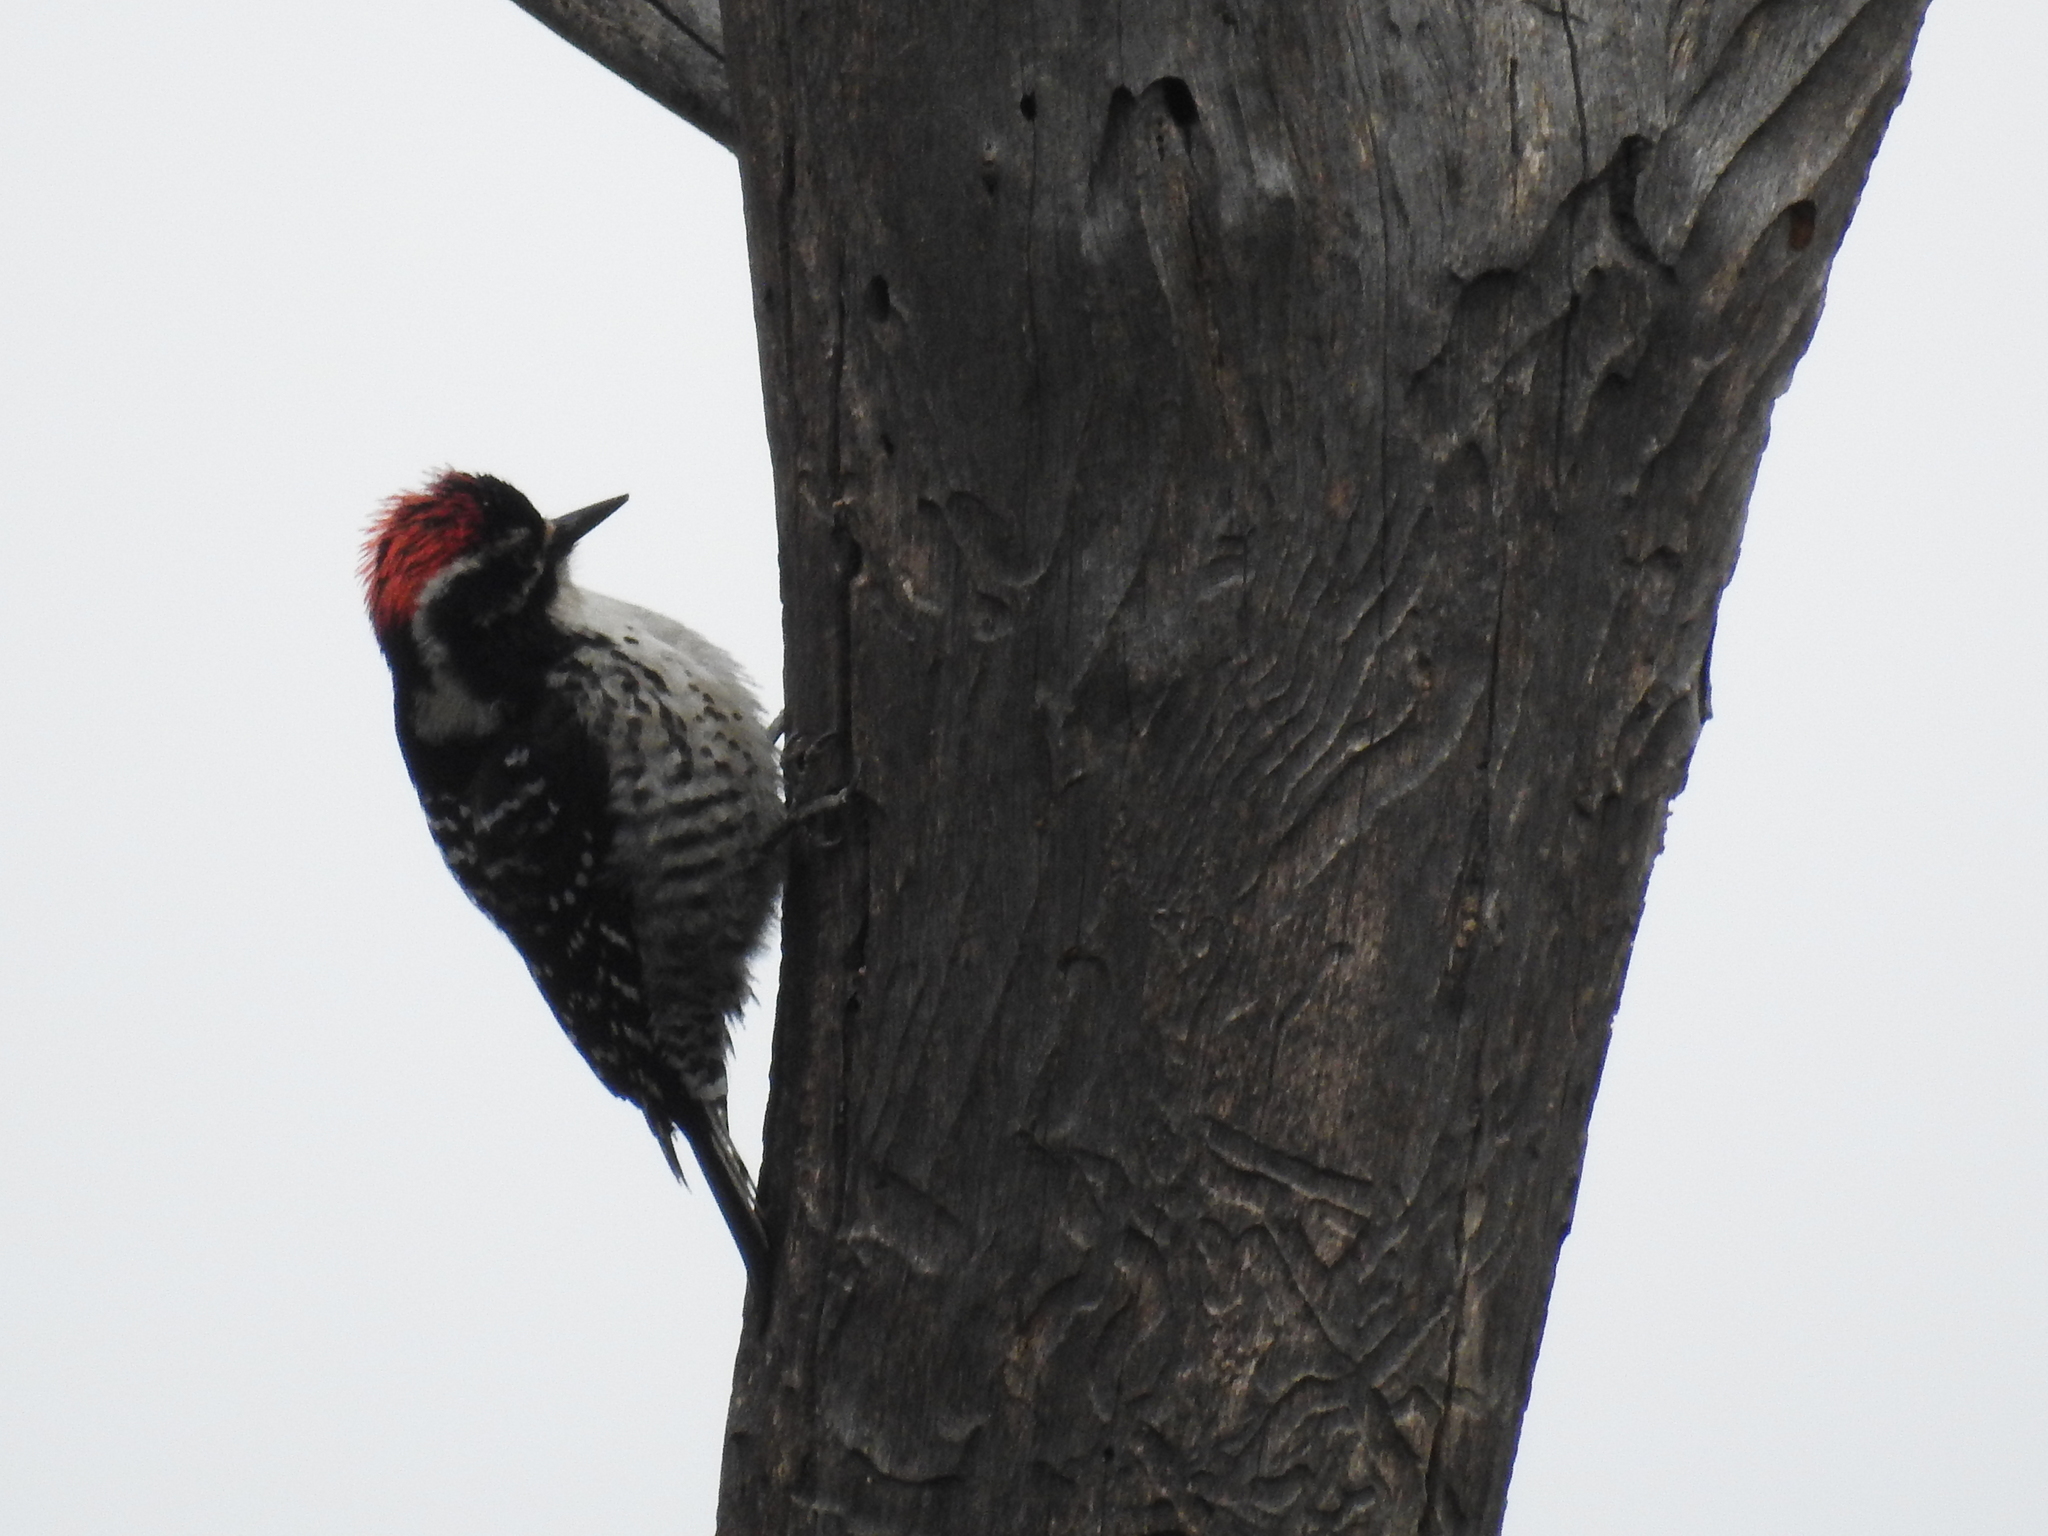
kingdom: Animalia
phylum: Chordata
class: Aves
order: Piciformes
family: Picidae
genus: Dryobates
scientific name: Dryobates nuttallii
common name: Nuttall's woodpecker
